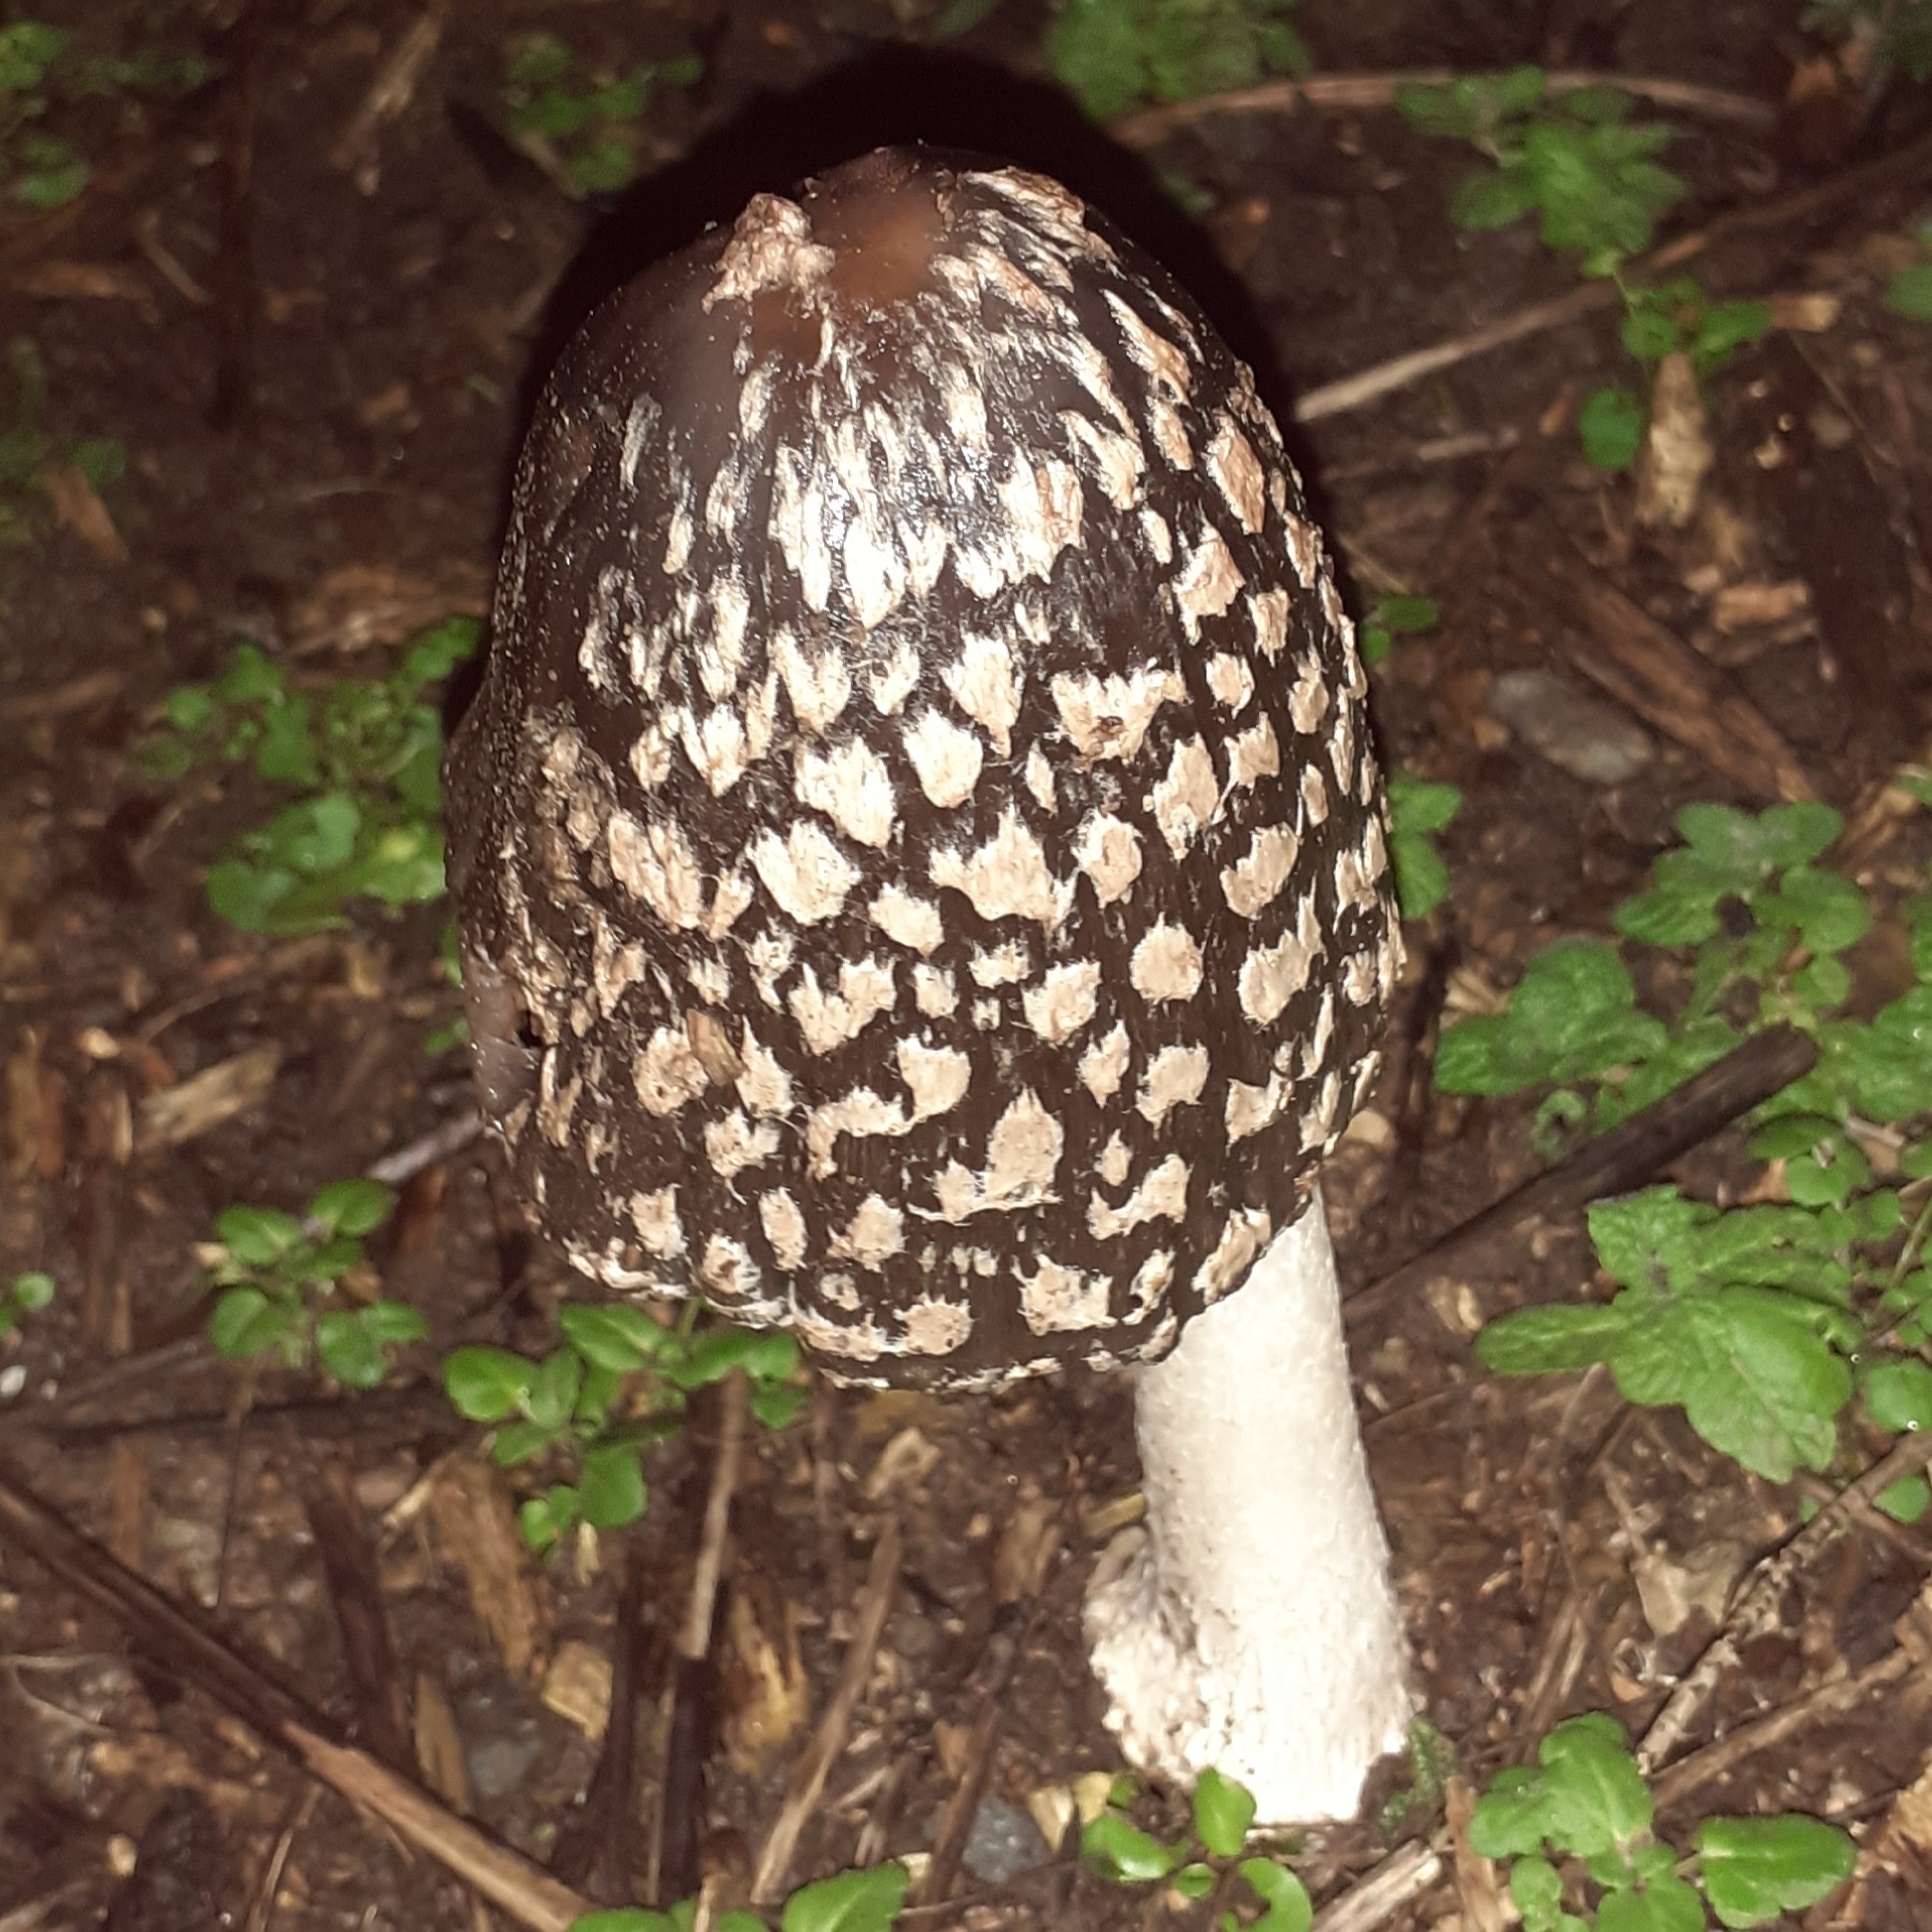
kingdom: Fungi
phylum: Basidiomycota
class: Agaricomycetes
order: Agaricales
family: Psathyrellaceae
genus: Coprinopsis
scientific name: Coprinopsis picacea
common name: Magpie inkcap
